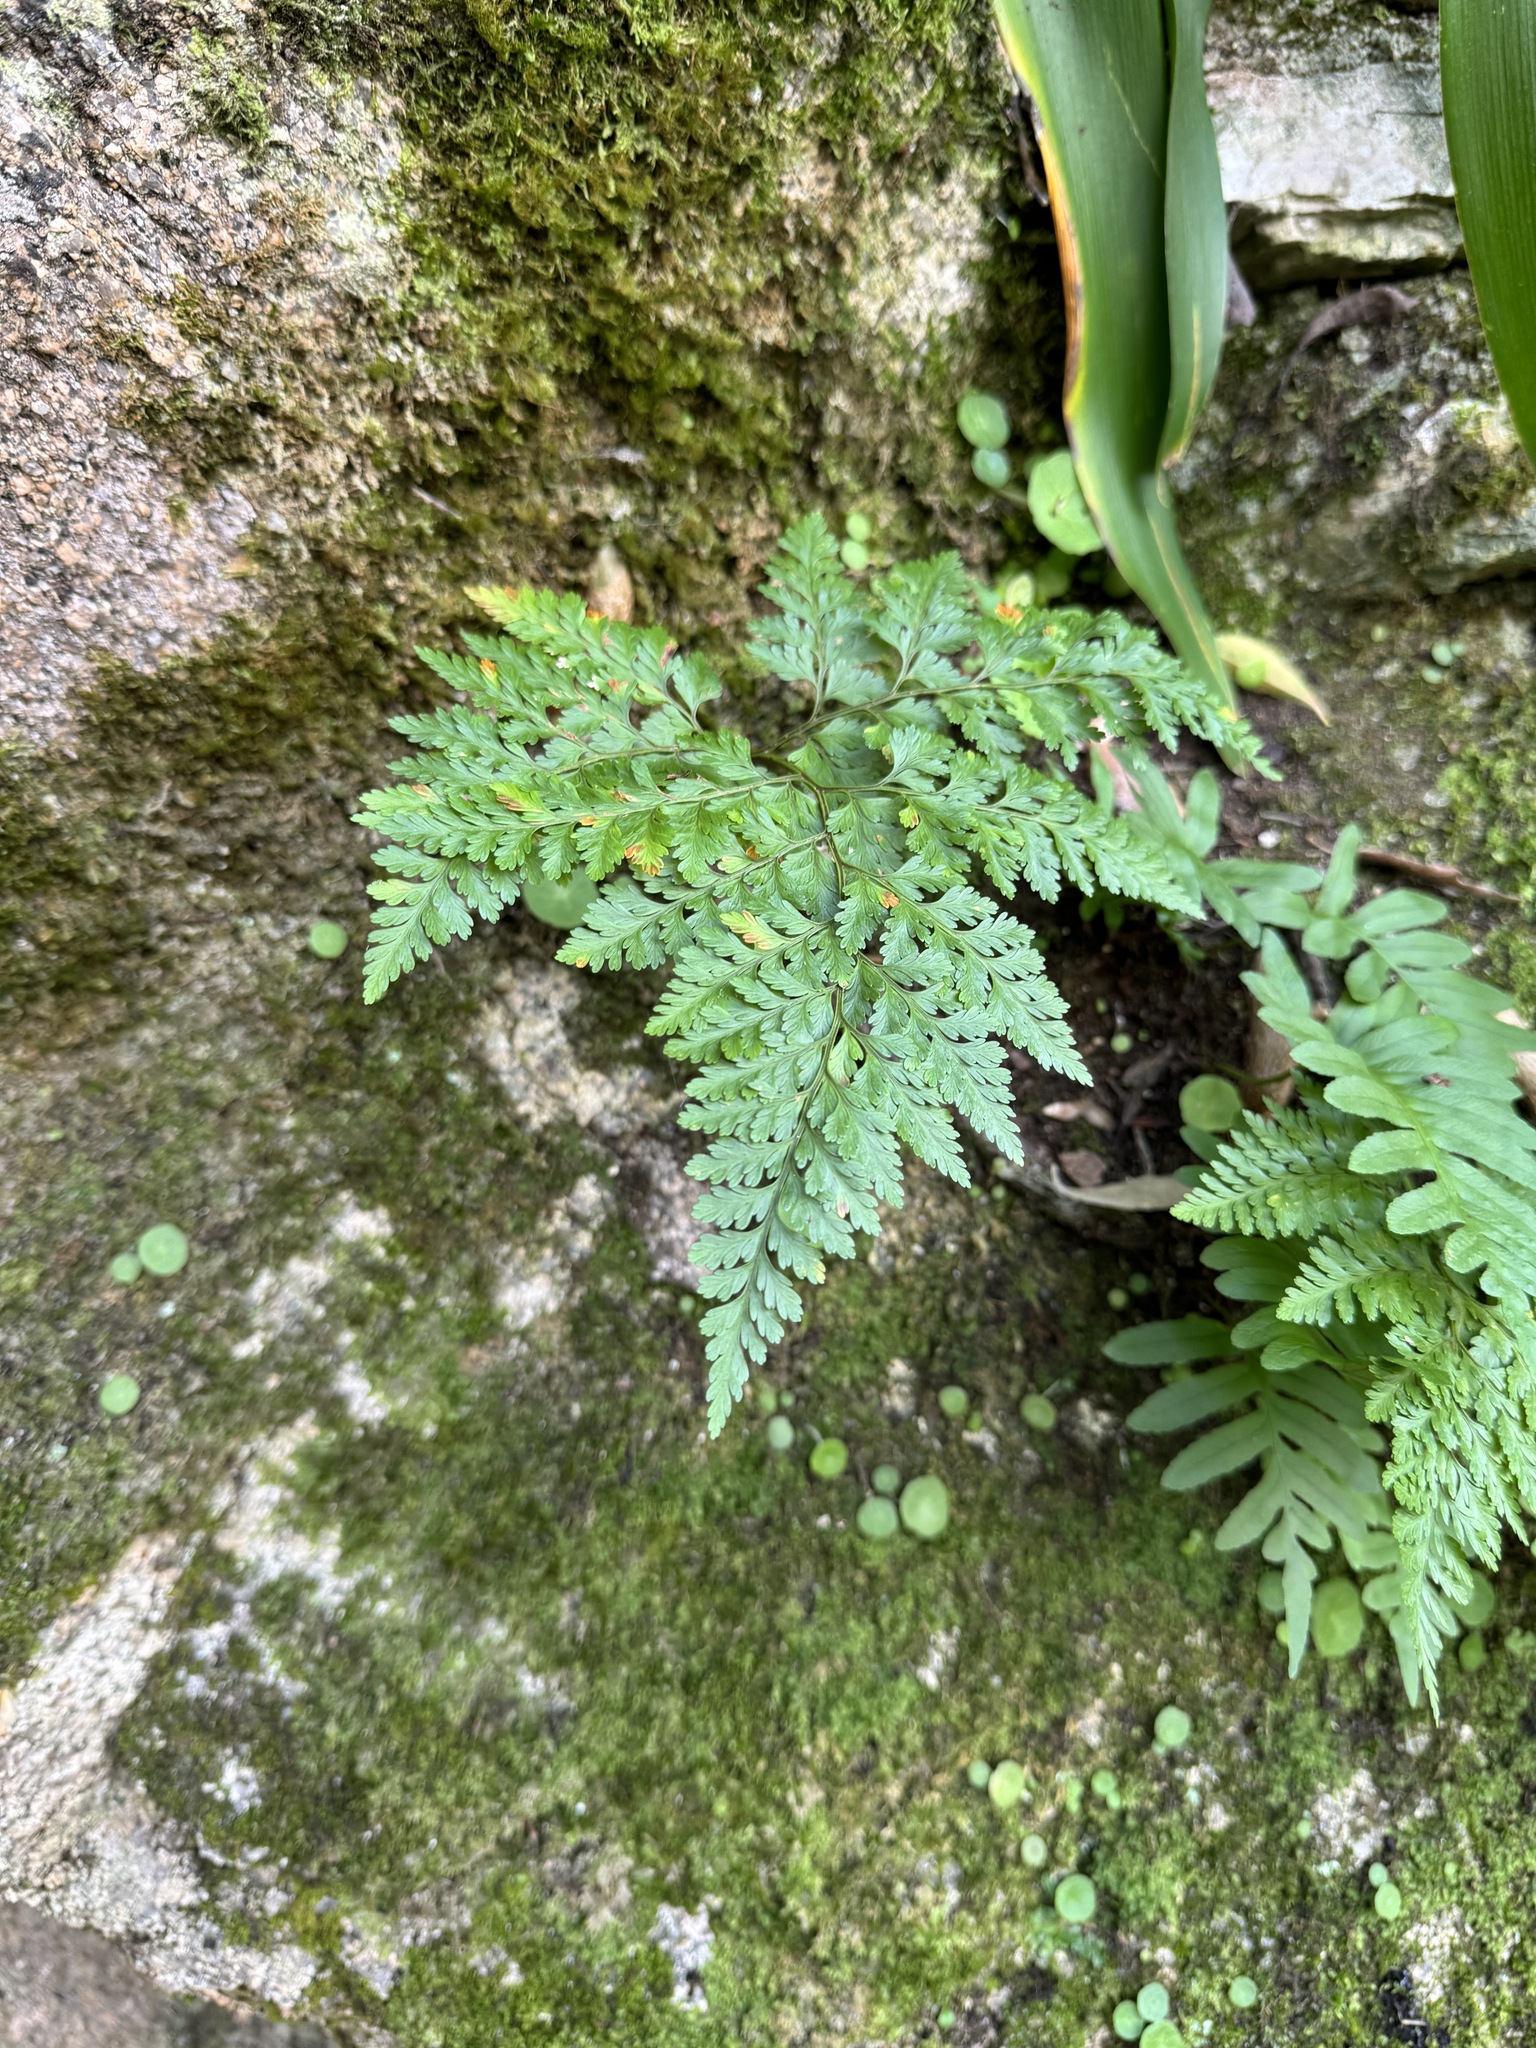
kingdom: Plantae
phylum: Tracheophyta
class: Polypodiopsida
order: Polypodiales
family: Davalliaceae
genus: Davallia
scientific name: Davallia canariensis
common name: Hare's-foot fern
